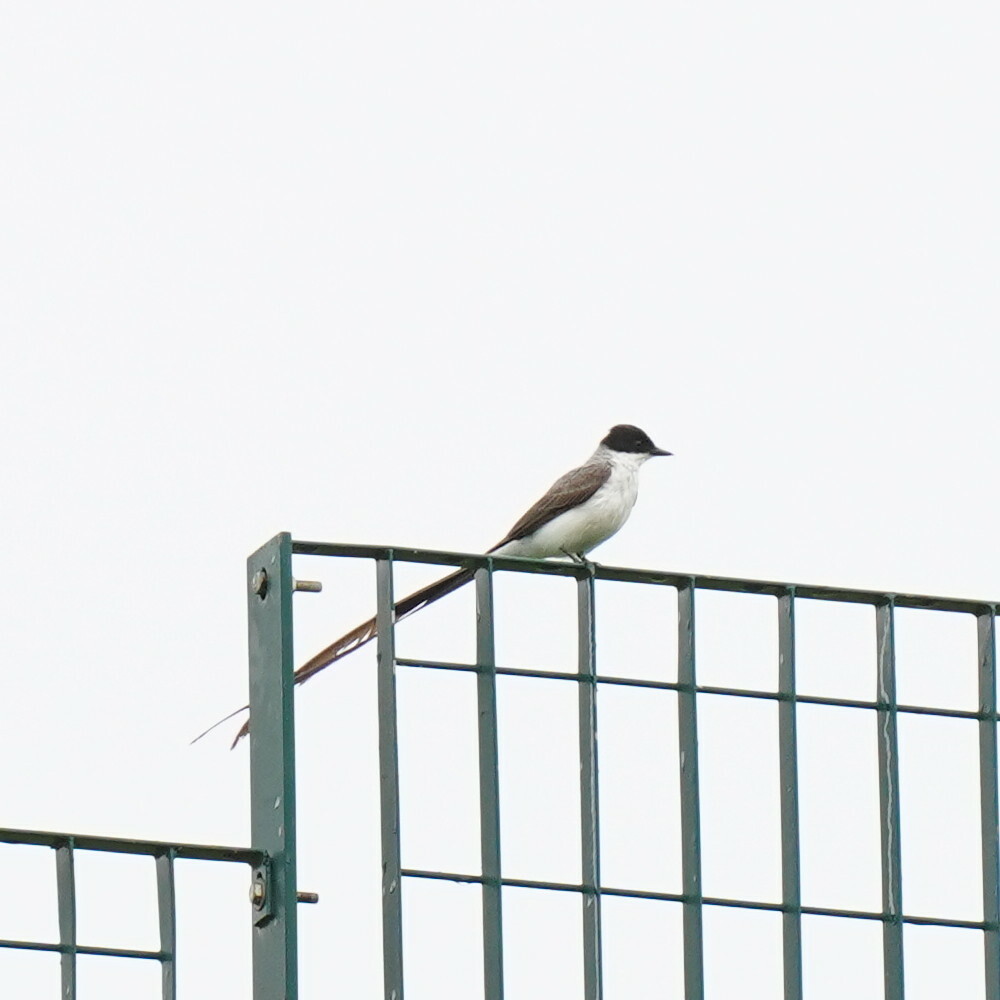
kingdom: Animalia
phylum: Chordata
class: Aves
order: Passeriformes
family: Tyrannidae
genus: Tyrannus
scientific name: Tyrannus savana
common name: Fork-tailed flycatcher
